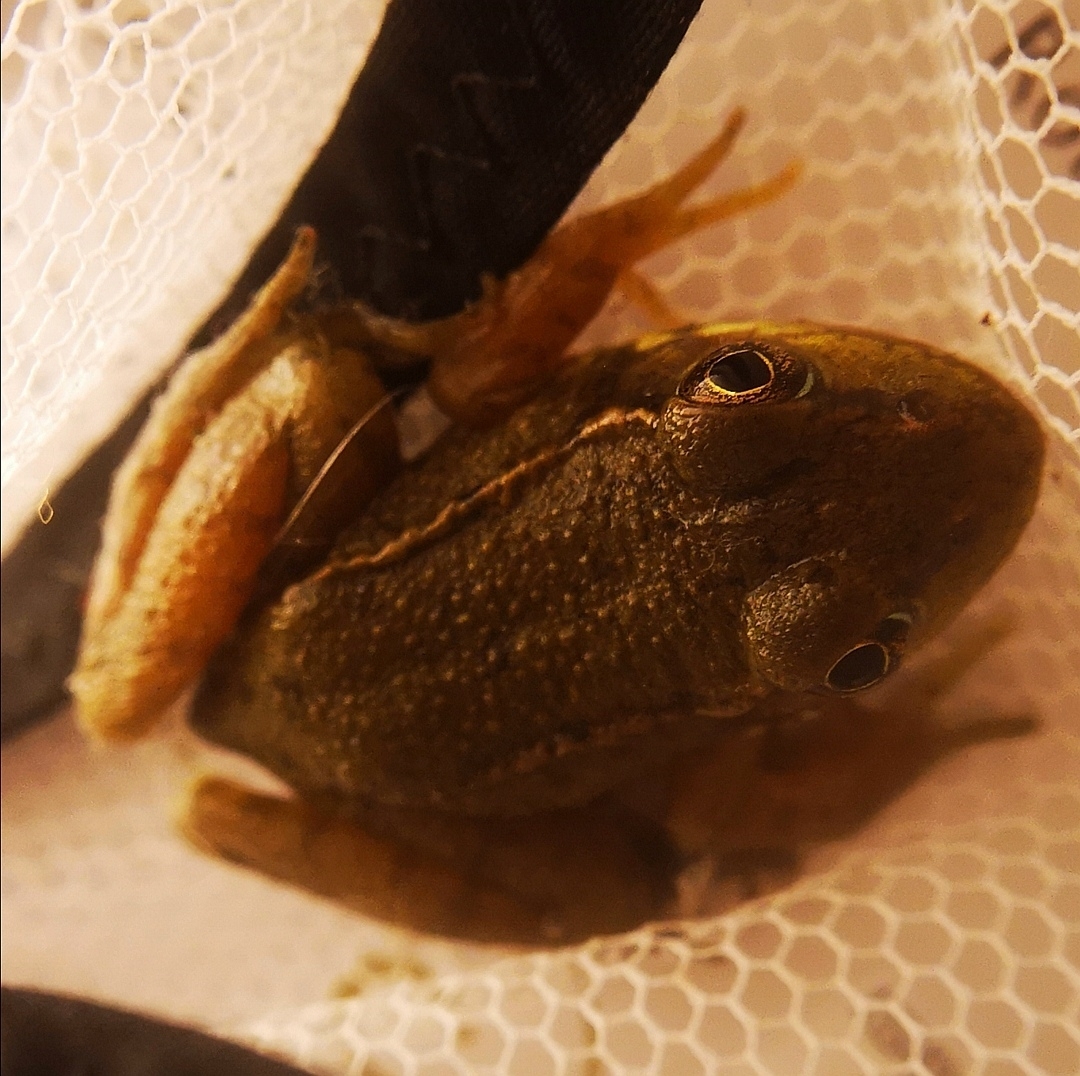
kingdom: Animalia
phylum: Chordata
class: Amphibia
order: Anura
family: Ranidae
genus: Lithobates
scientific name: Lithobates clamitans
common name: Green frog
